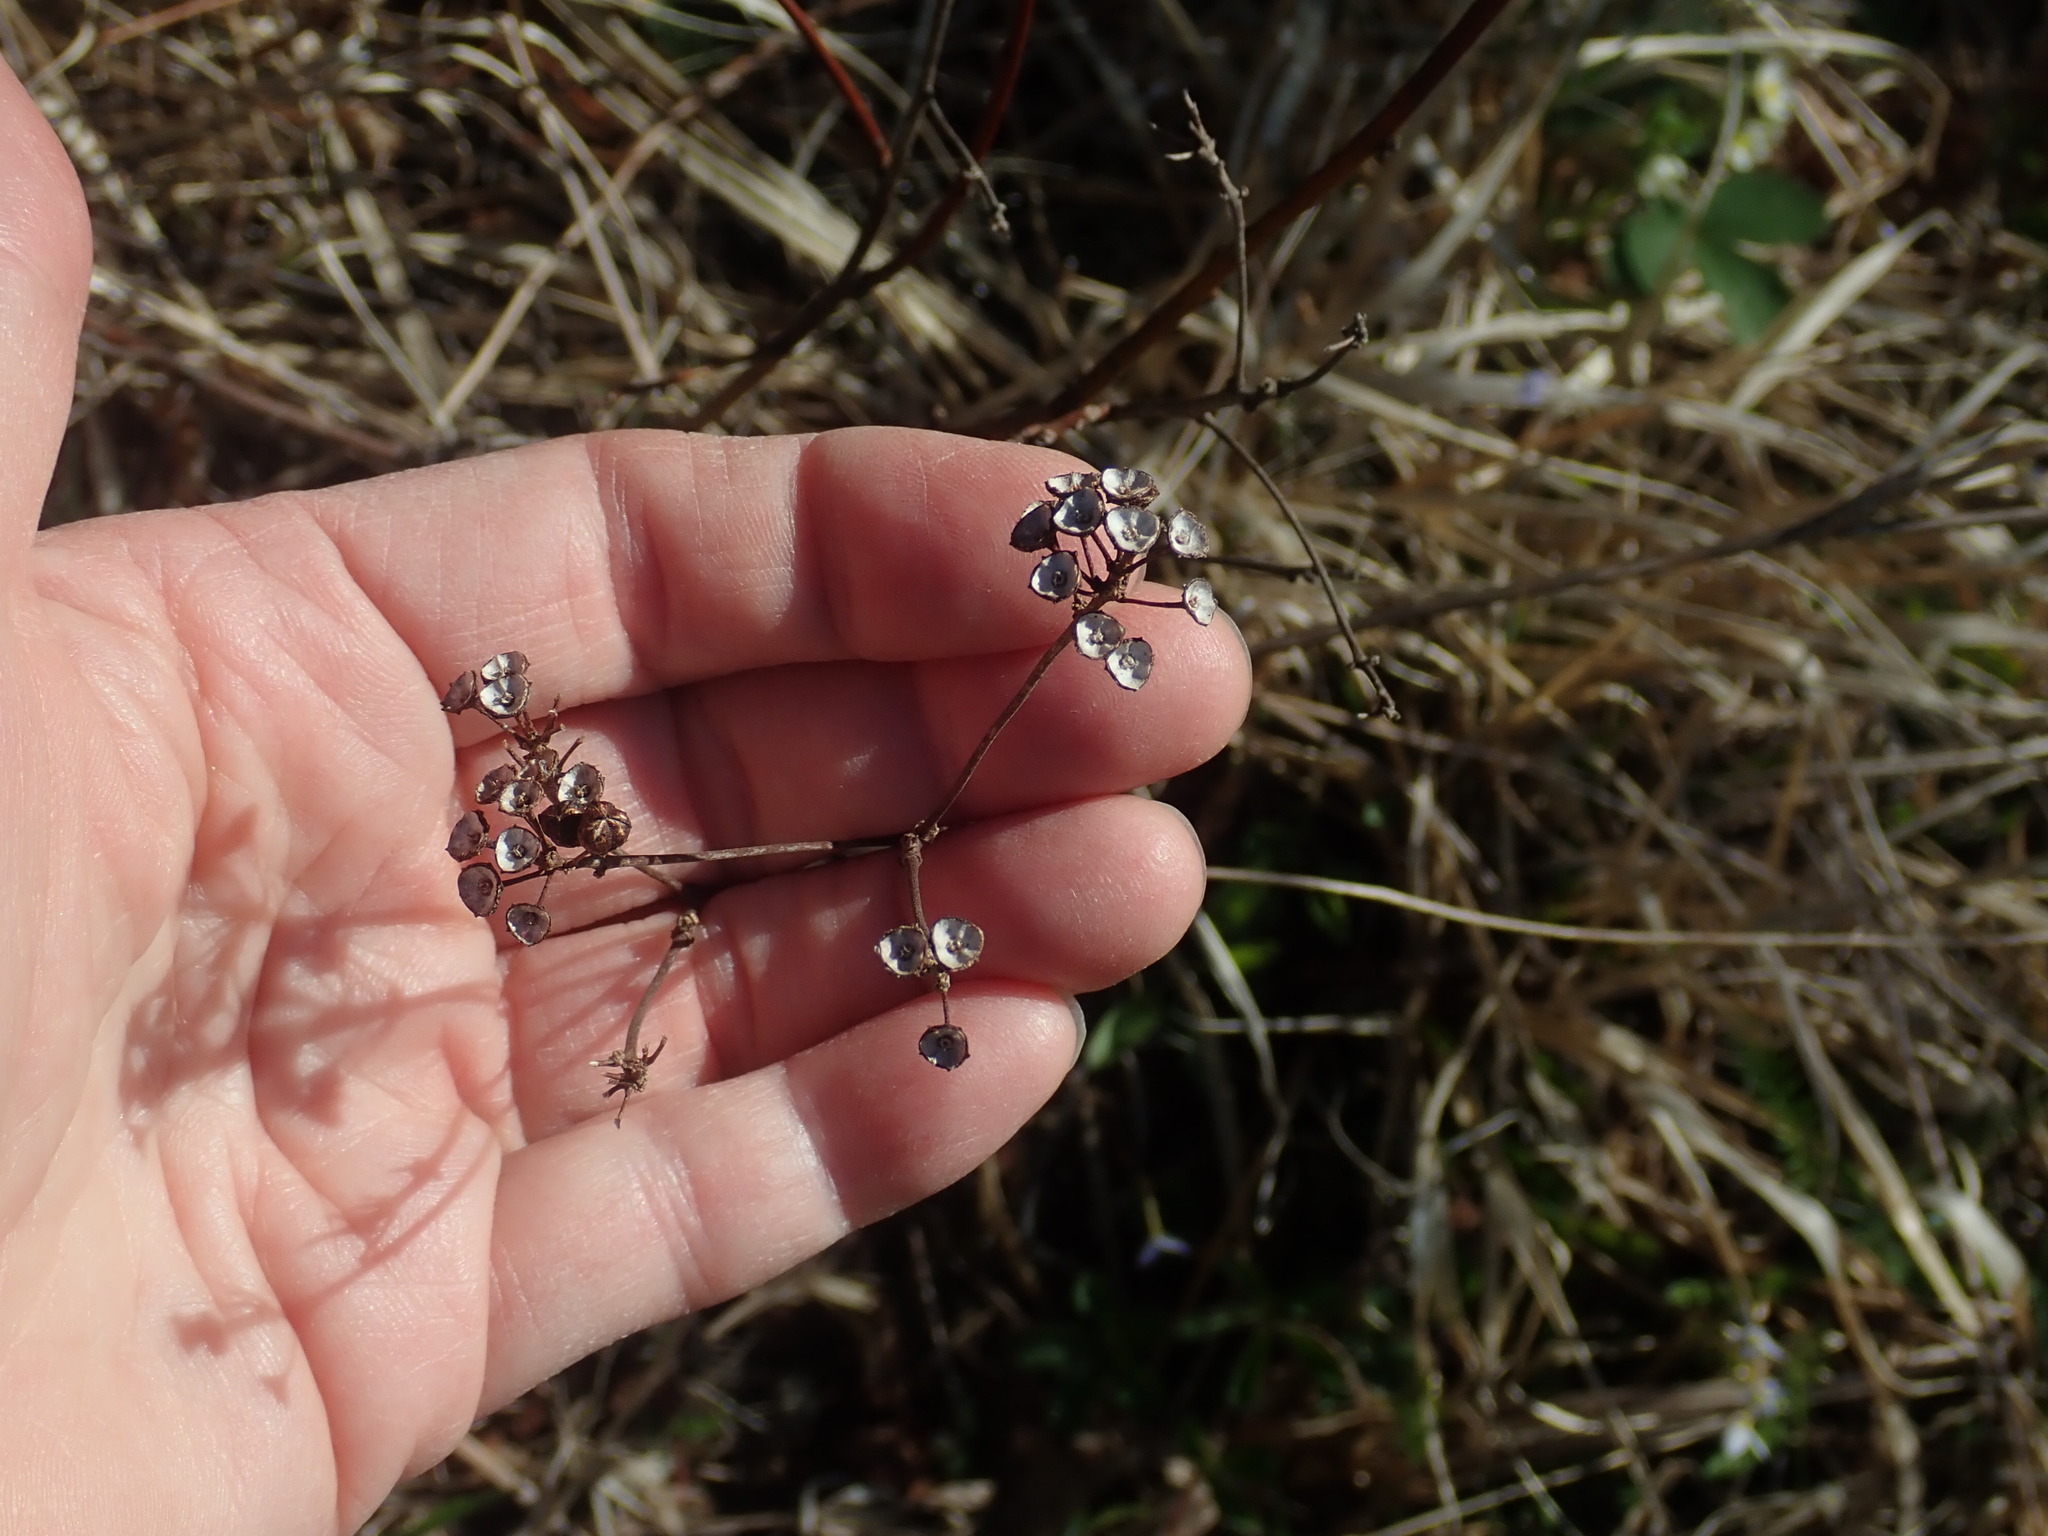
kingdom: Plantae
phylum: Tracheophyta
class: Magnoliopsida
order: Rosales
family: Rhamnaceae
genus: Ceanothus
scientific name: Ceanothus americanus
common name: Redroot
